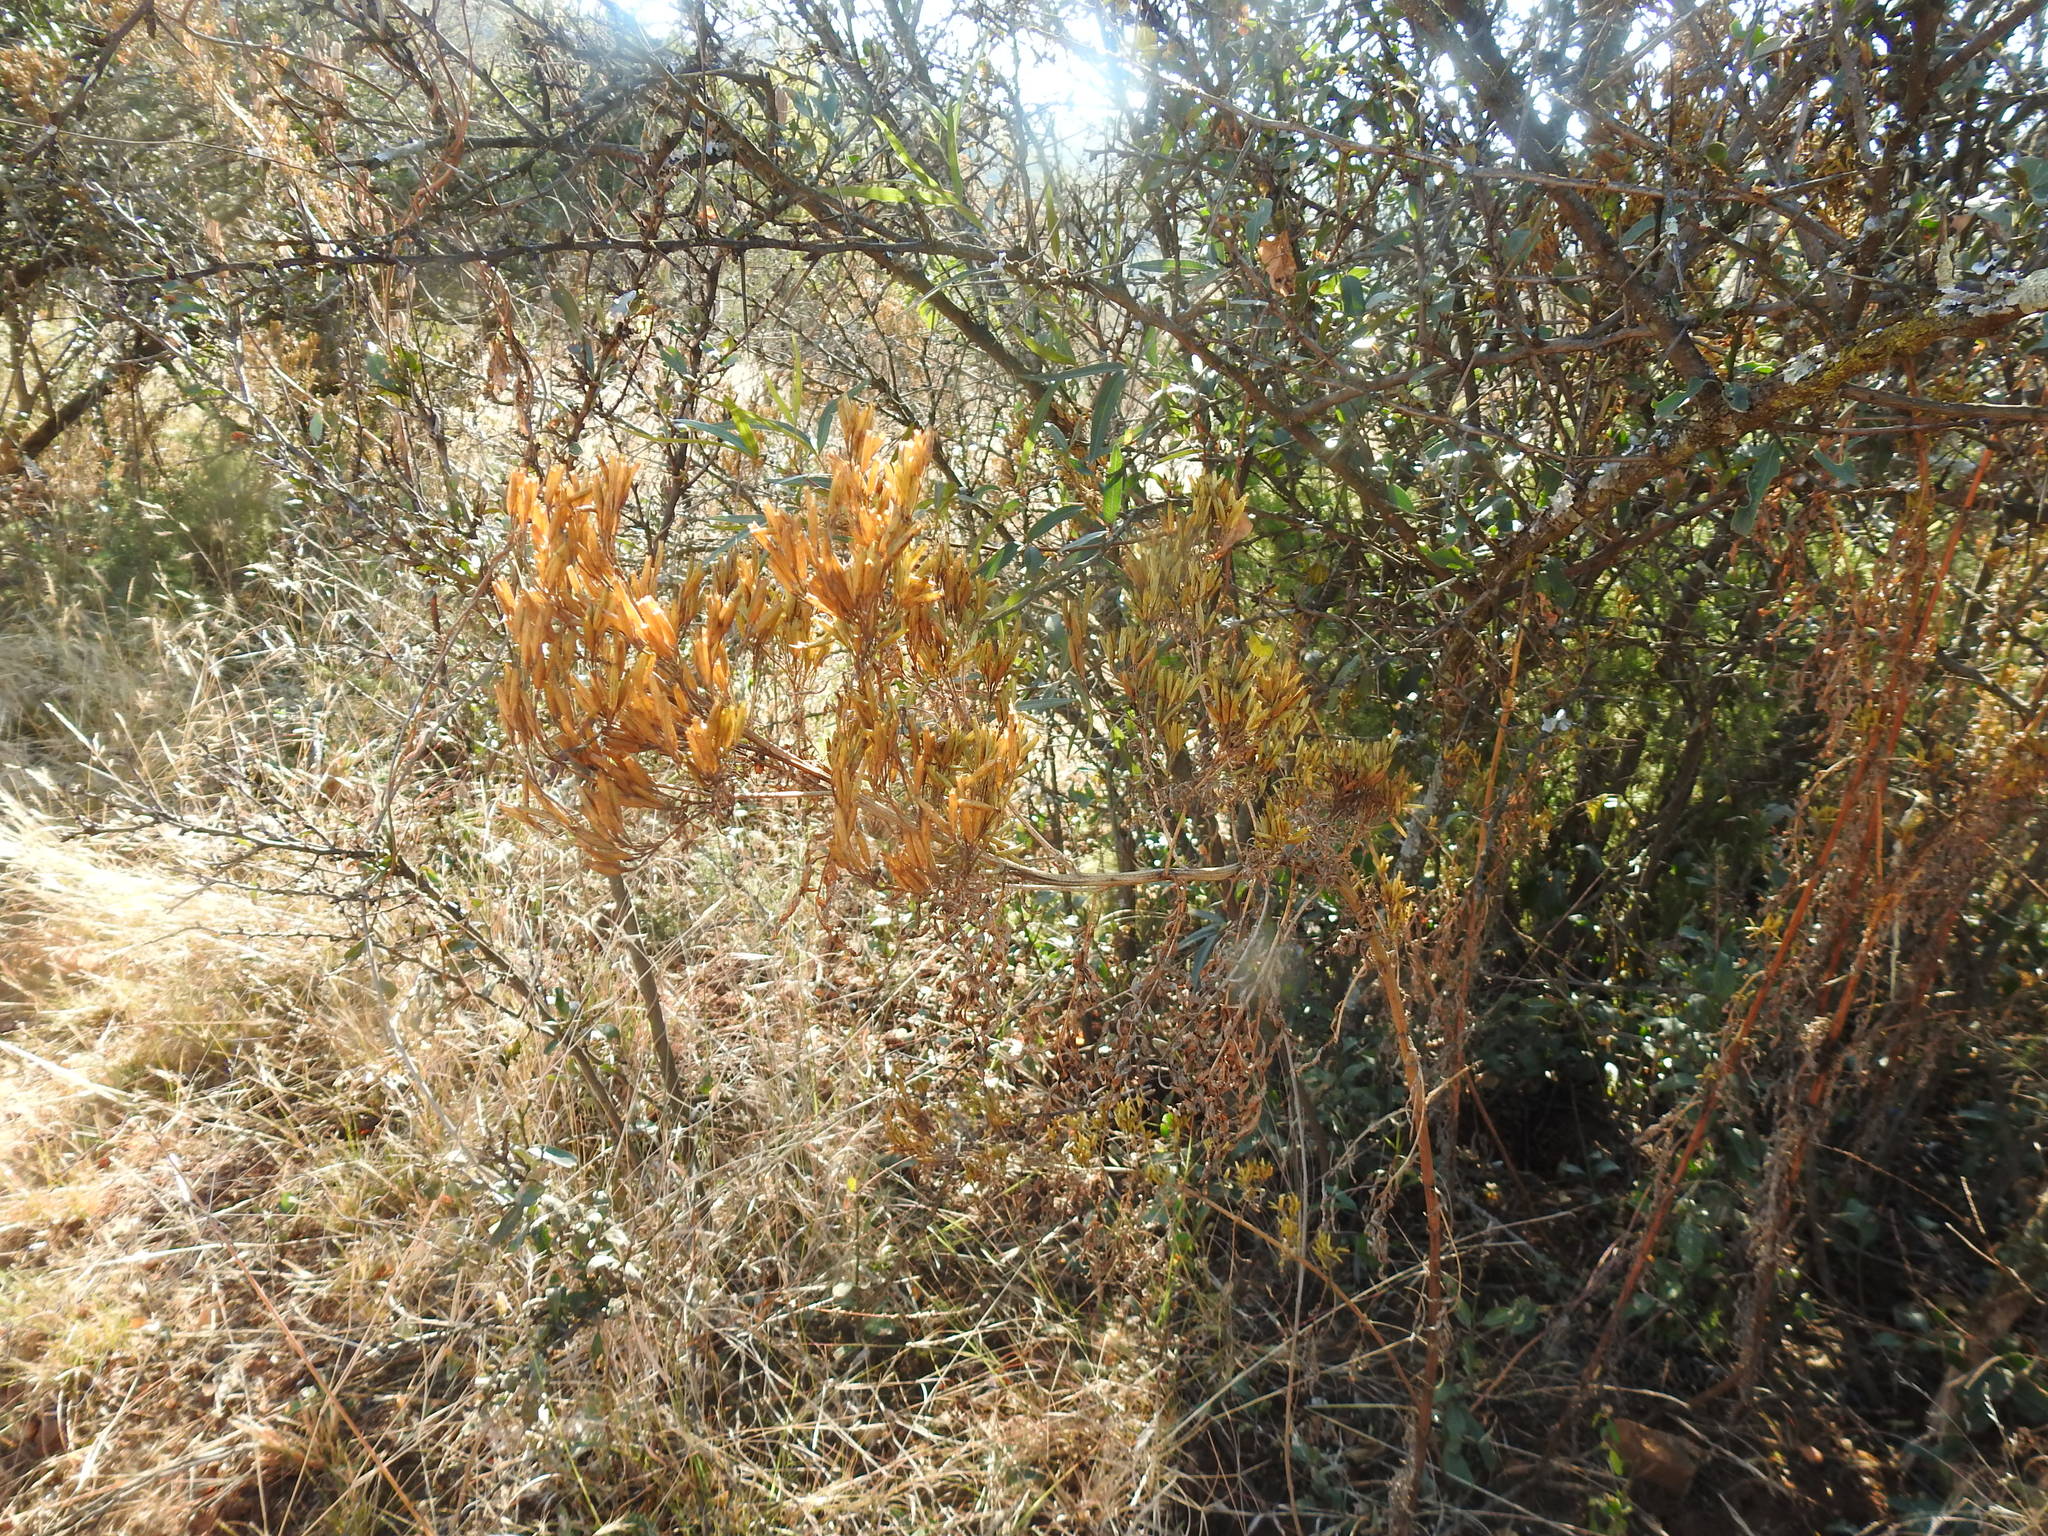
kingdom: Plantae
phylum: Tracheophyta
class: Magnoliopsida
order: Asterales
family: Asteraceae
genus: Tagetes
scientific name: Tagetes minuta
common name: Muster john henry
